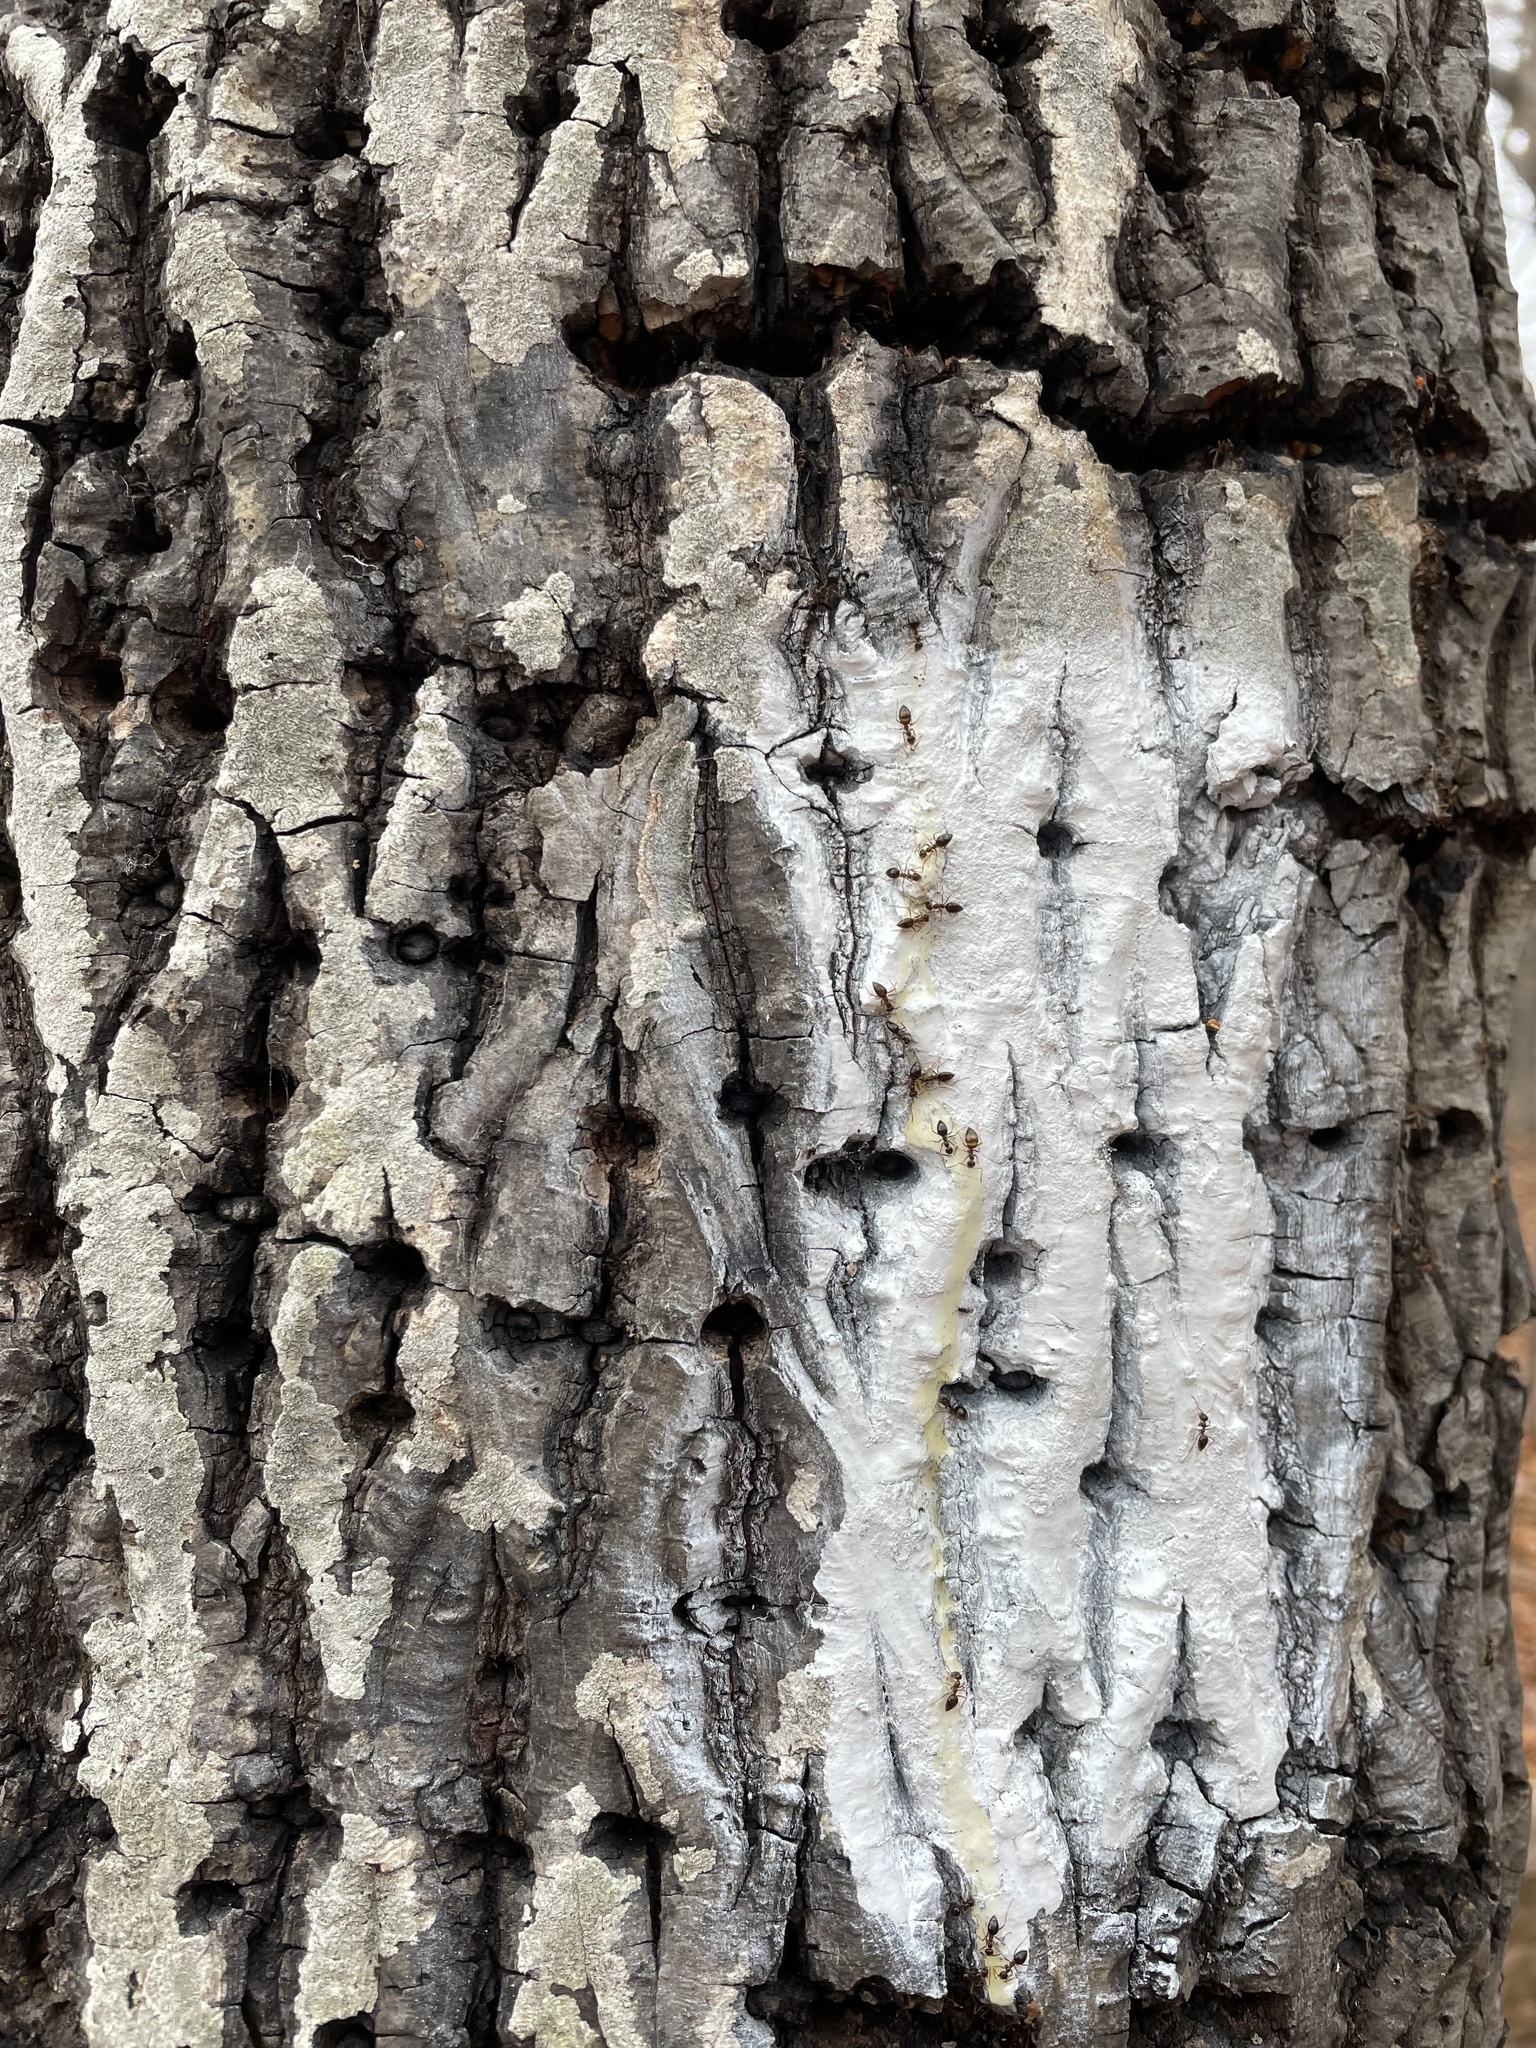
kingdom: Animalia
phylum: Chordata
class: Aves
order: Piciformes
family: Picidae
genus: Sphyrapicus
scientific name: Sphyrapicus varius
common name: Yellow-bellied sapsucker
